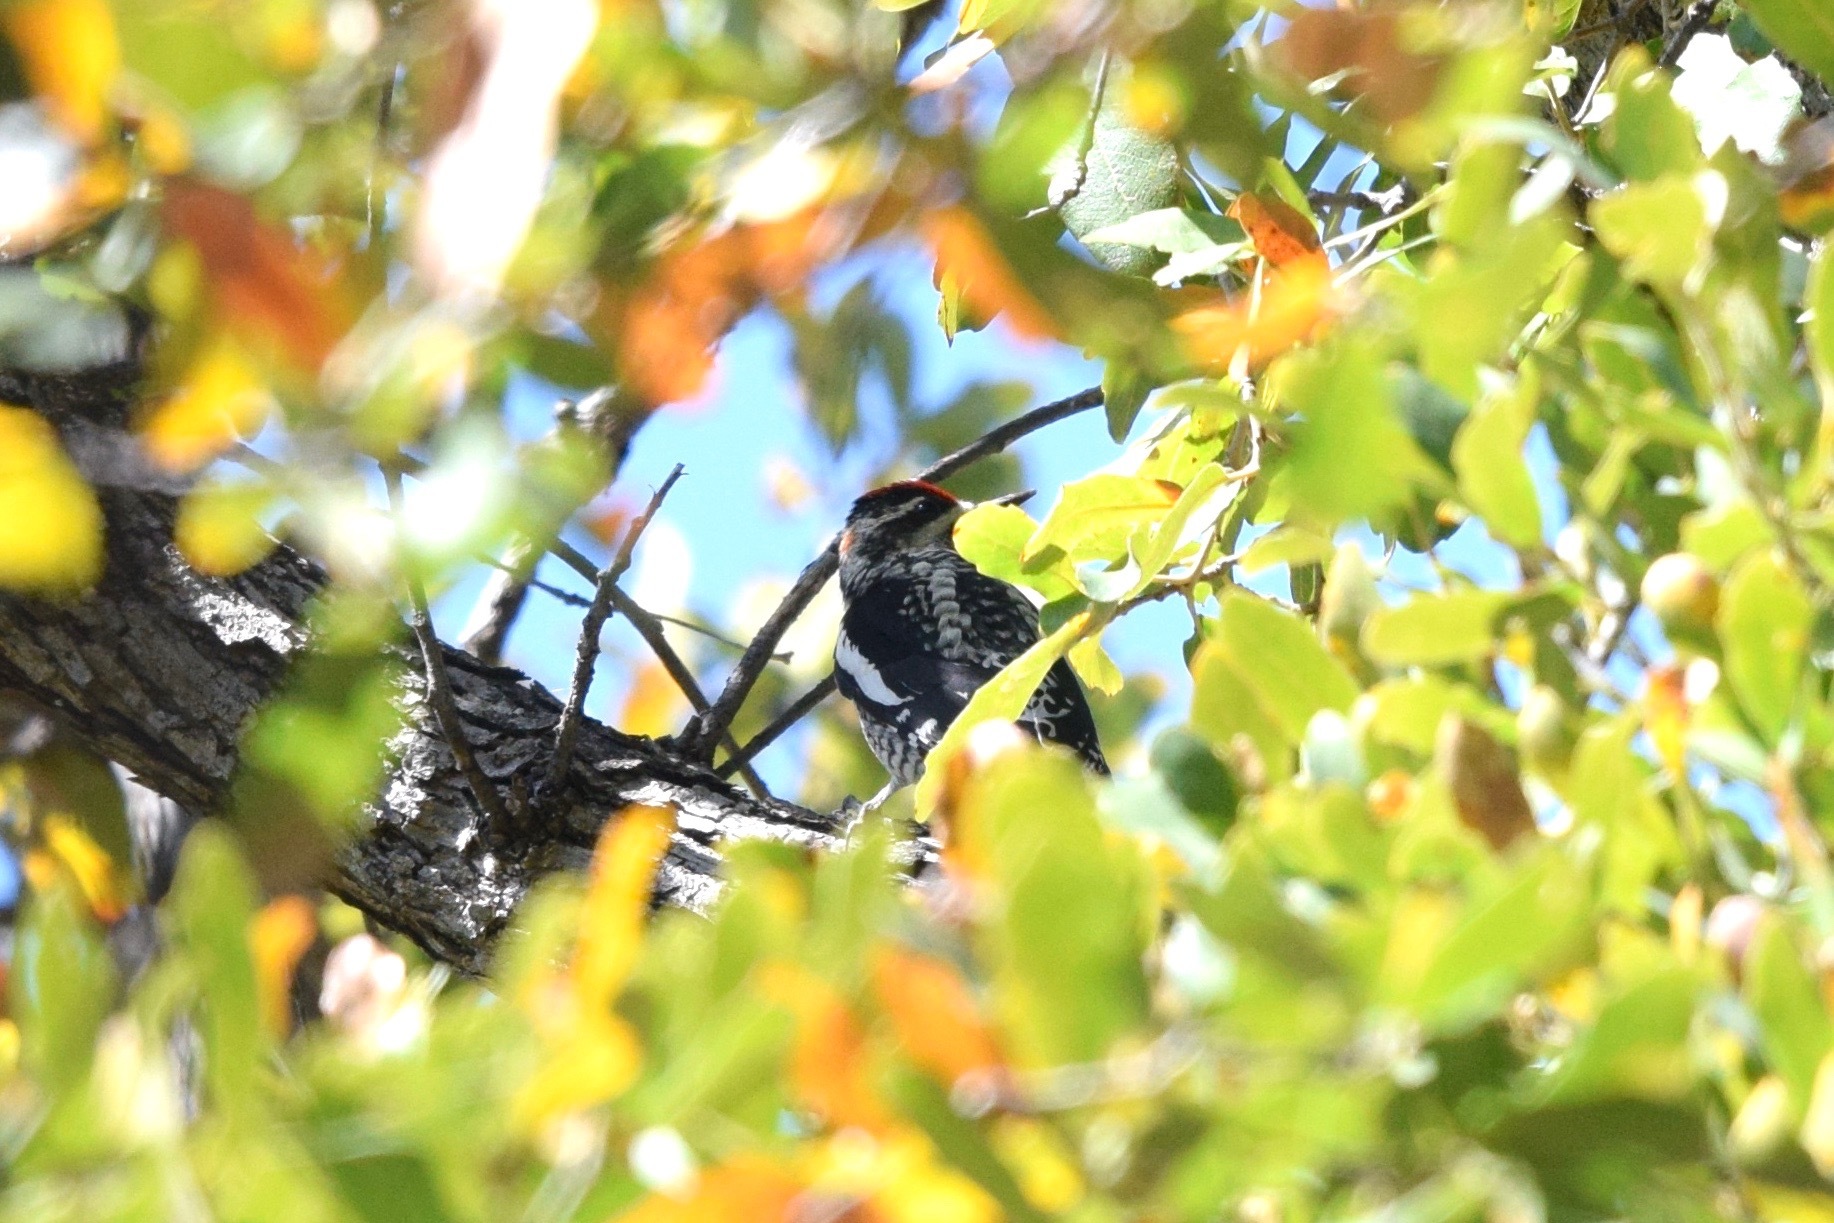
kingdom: Animalia
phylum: Chordata
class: Aves
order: Piciformes
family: Picidae
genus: Sphyrapicus
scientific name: Sphyrapicus nuchalis
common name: Red-naped sapsucker
